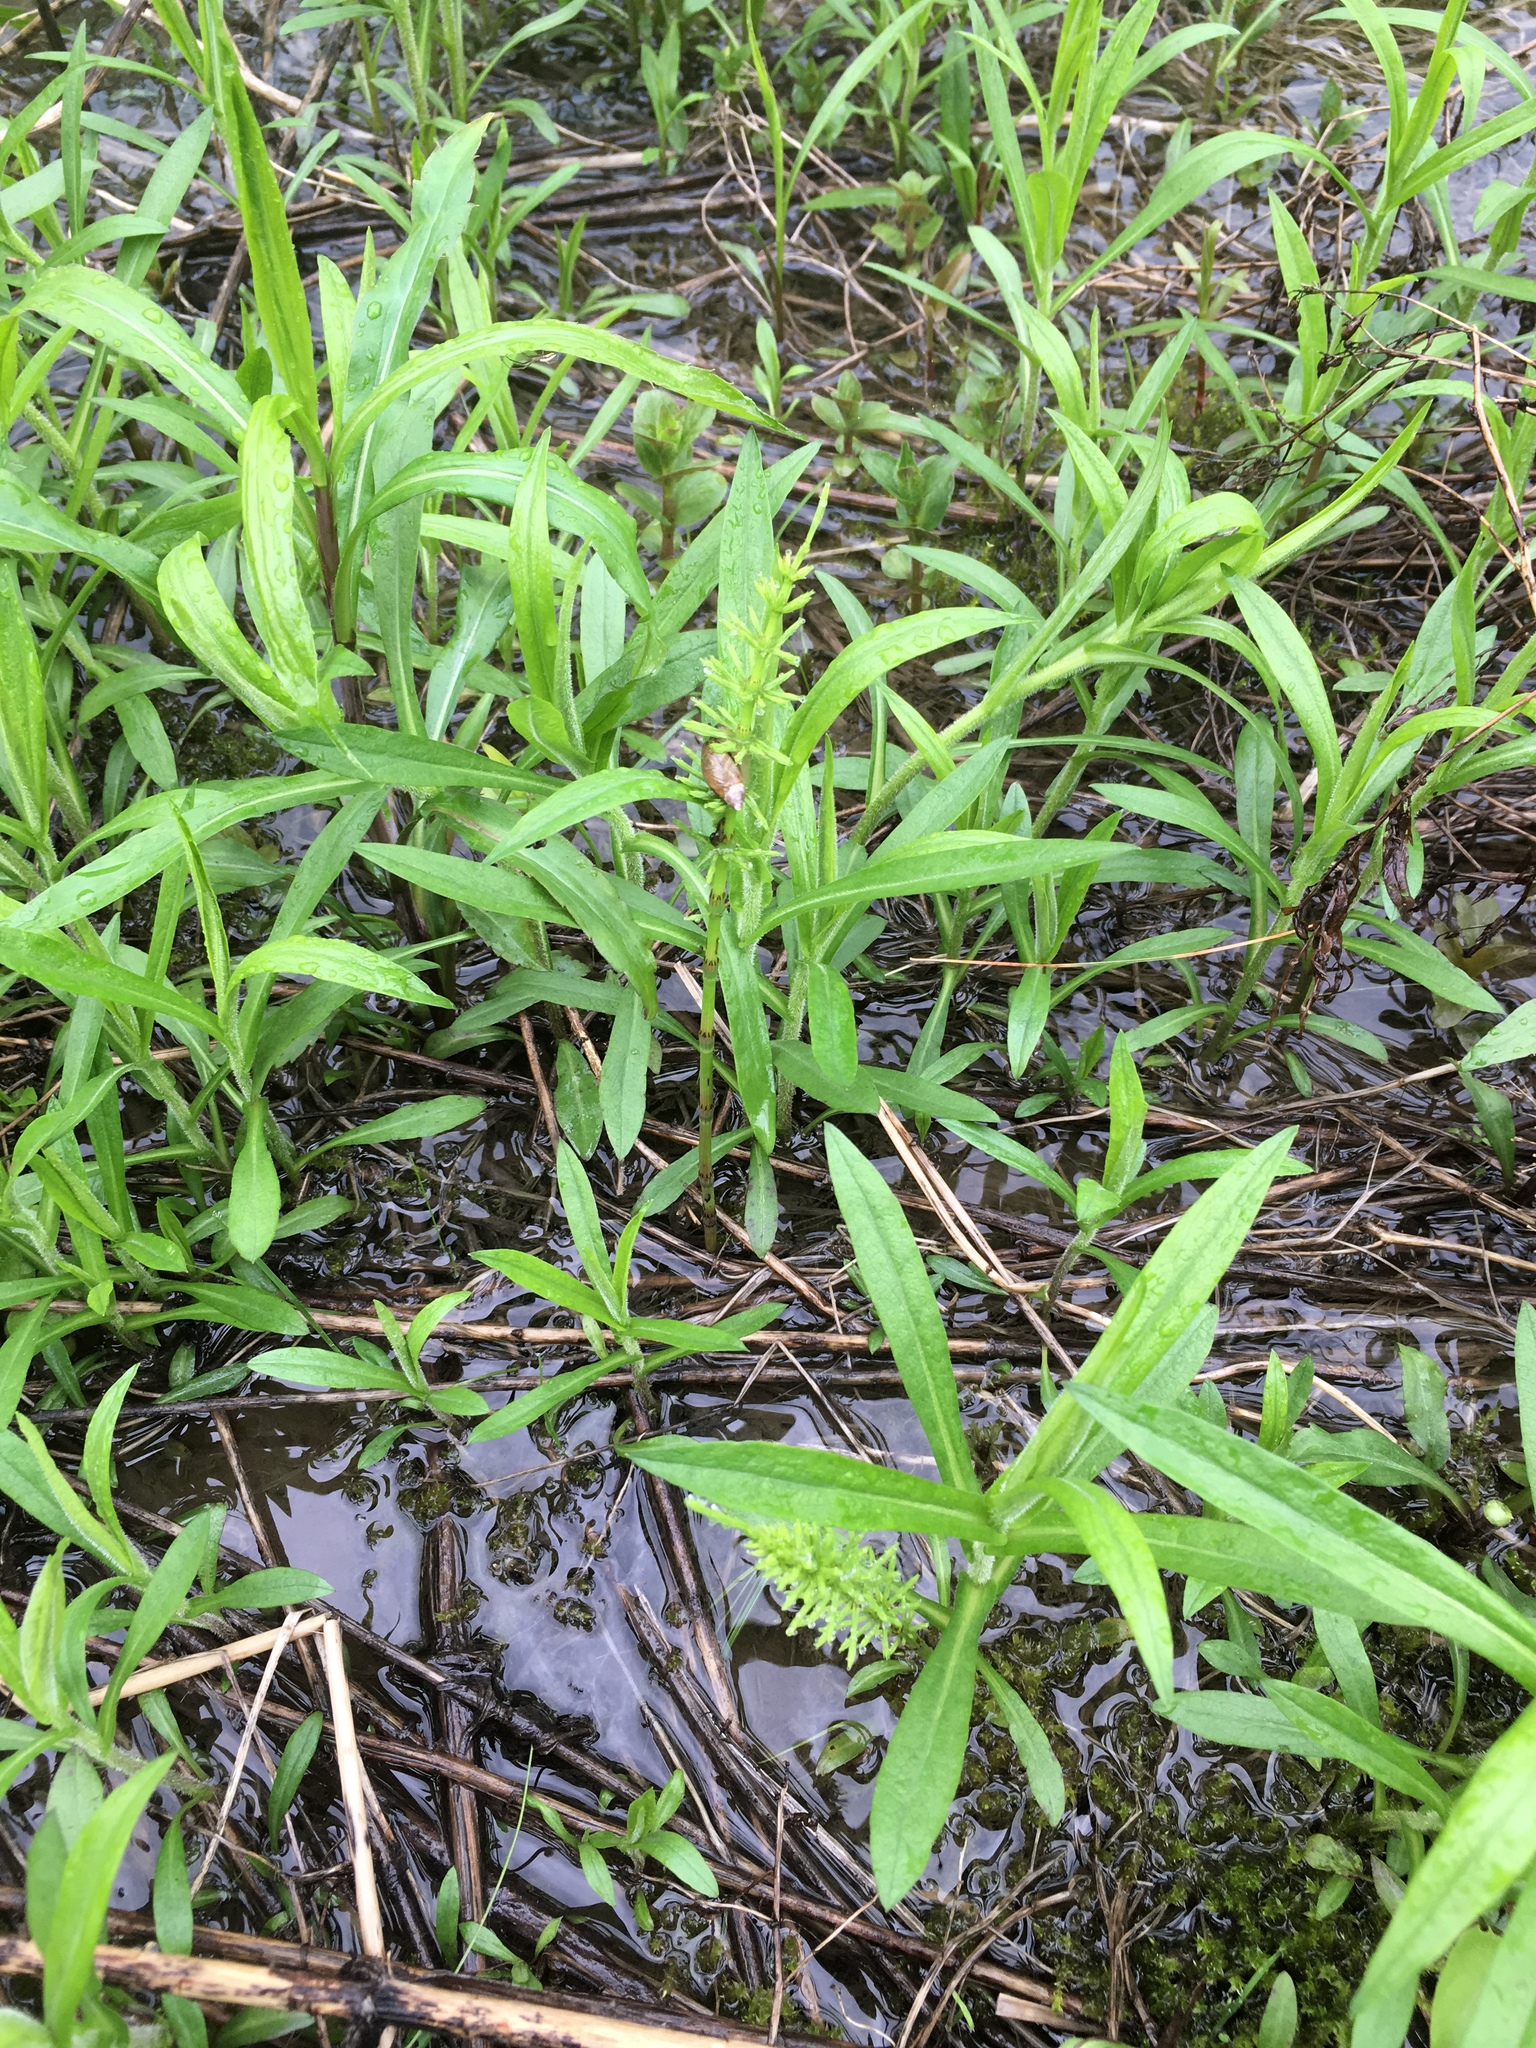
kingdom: Plantae
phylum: Tracheophyta
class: Polypodiopsida
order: Equisetales
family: Equisetaceae
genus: Equisetum
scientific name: Equisetum arvense
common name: Field horsetail
